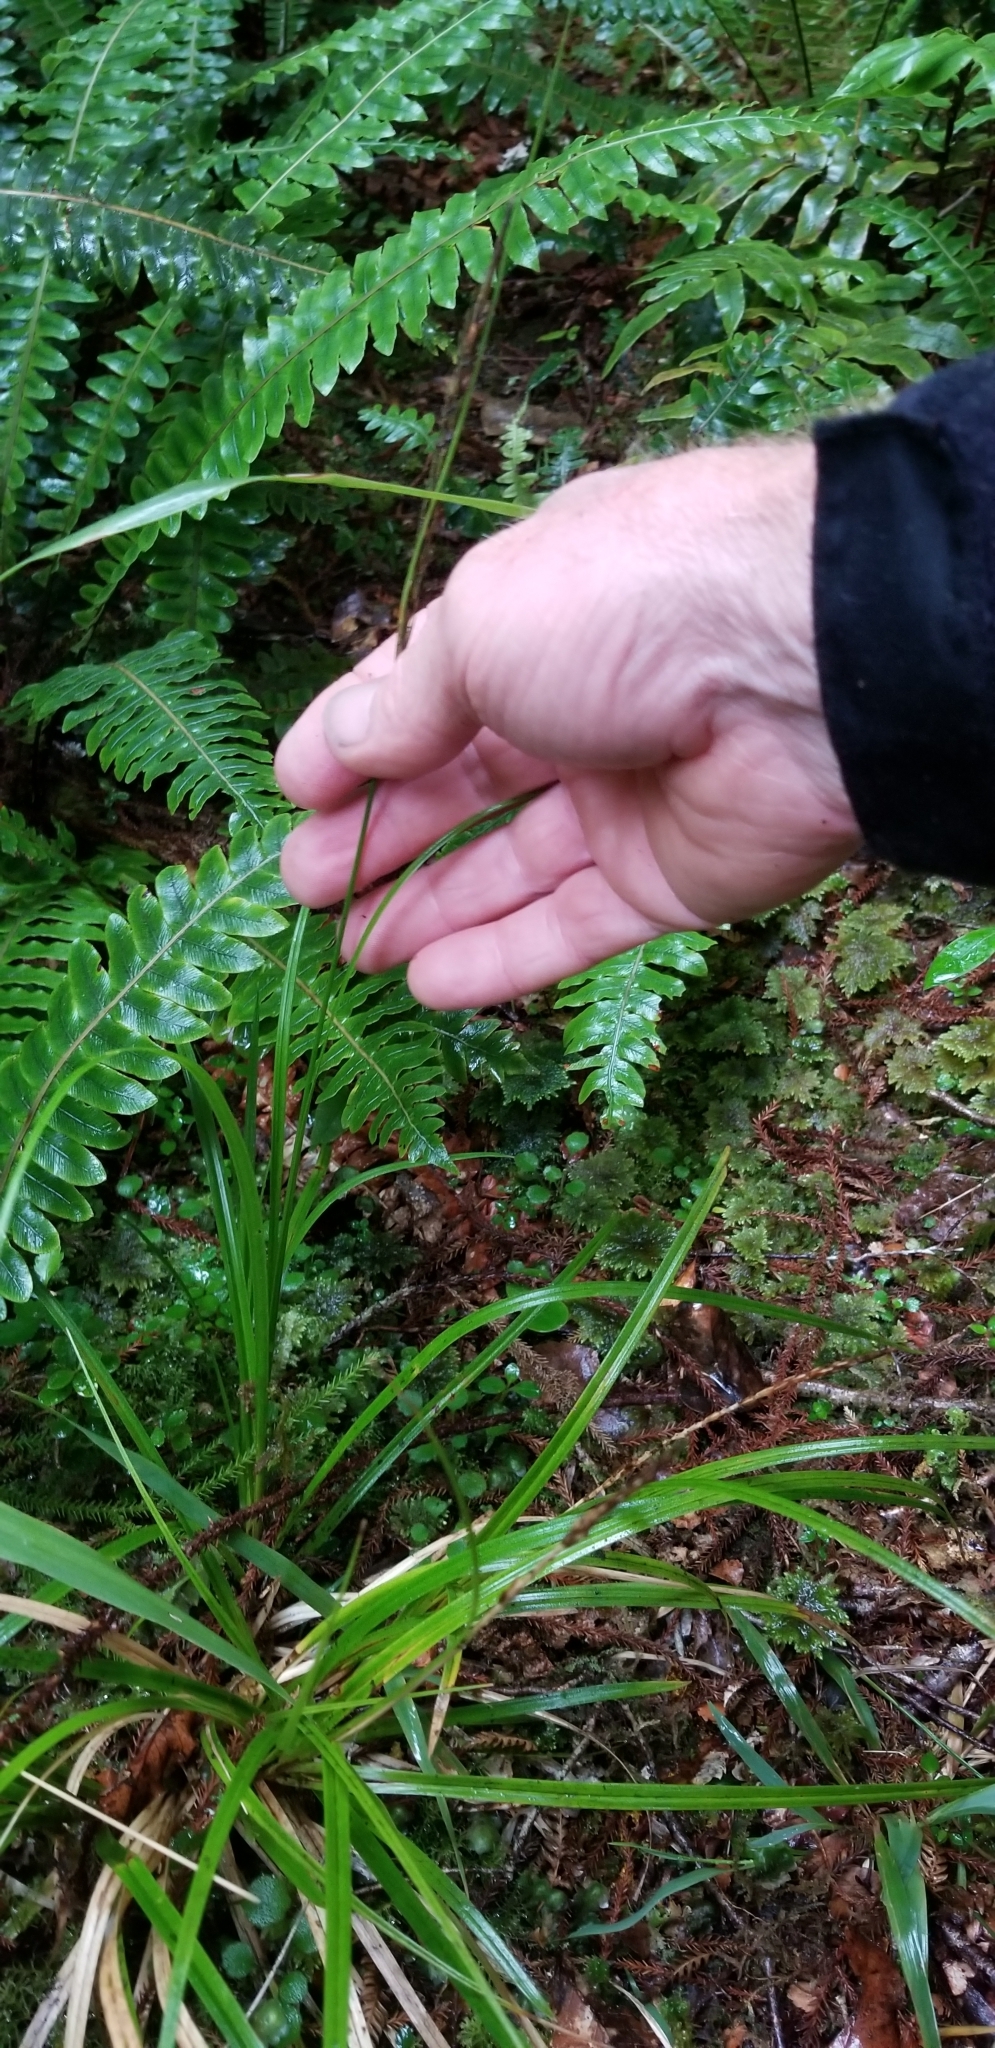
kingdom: Plantae
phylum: Tracheophyta
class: Liliopsida
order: Poales
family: Cyperaceae
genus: Carex
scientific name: Carex uncinata
